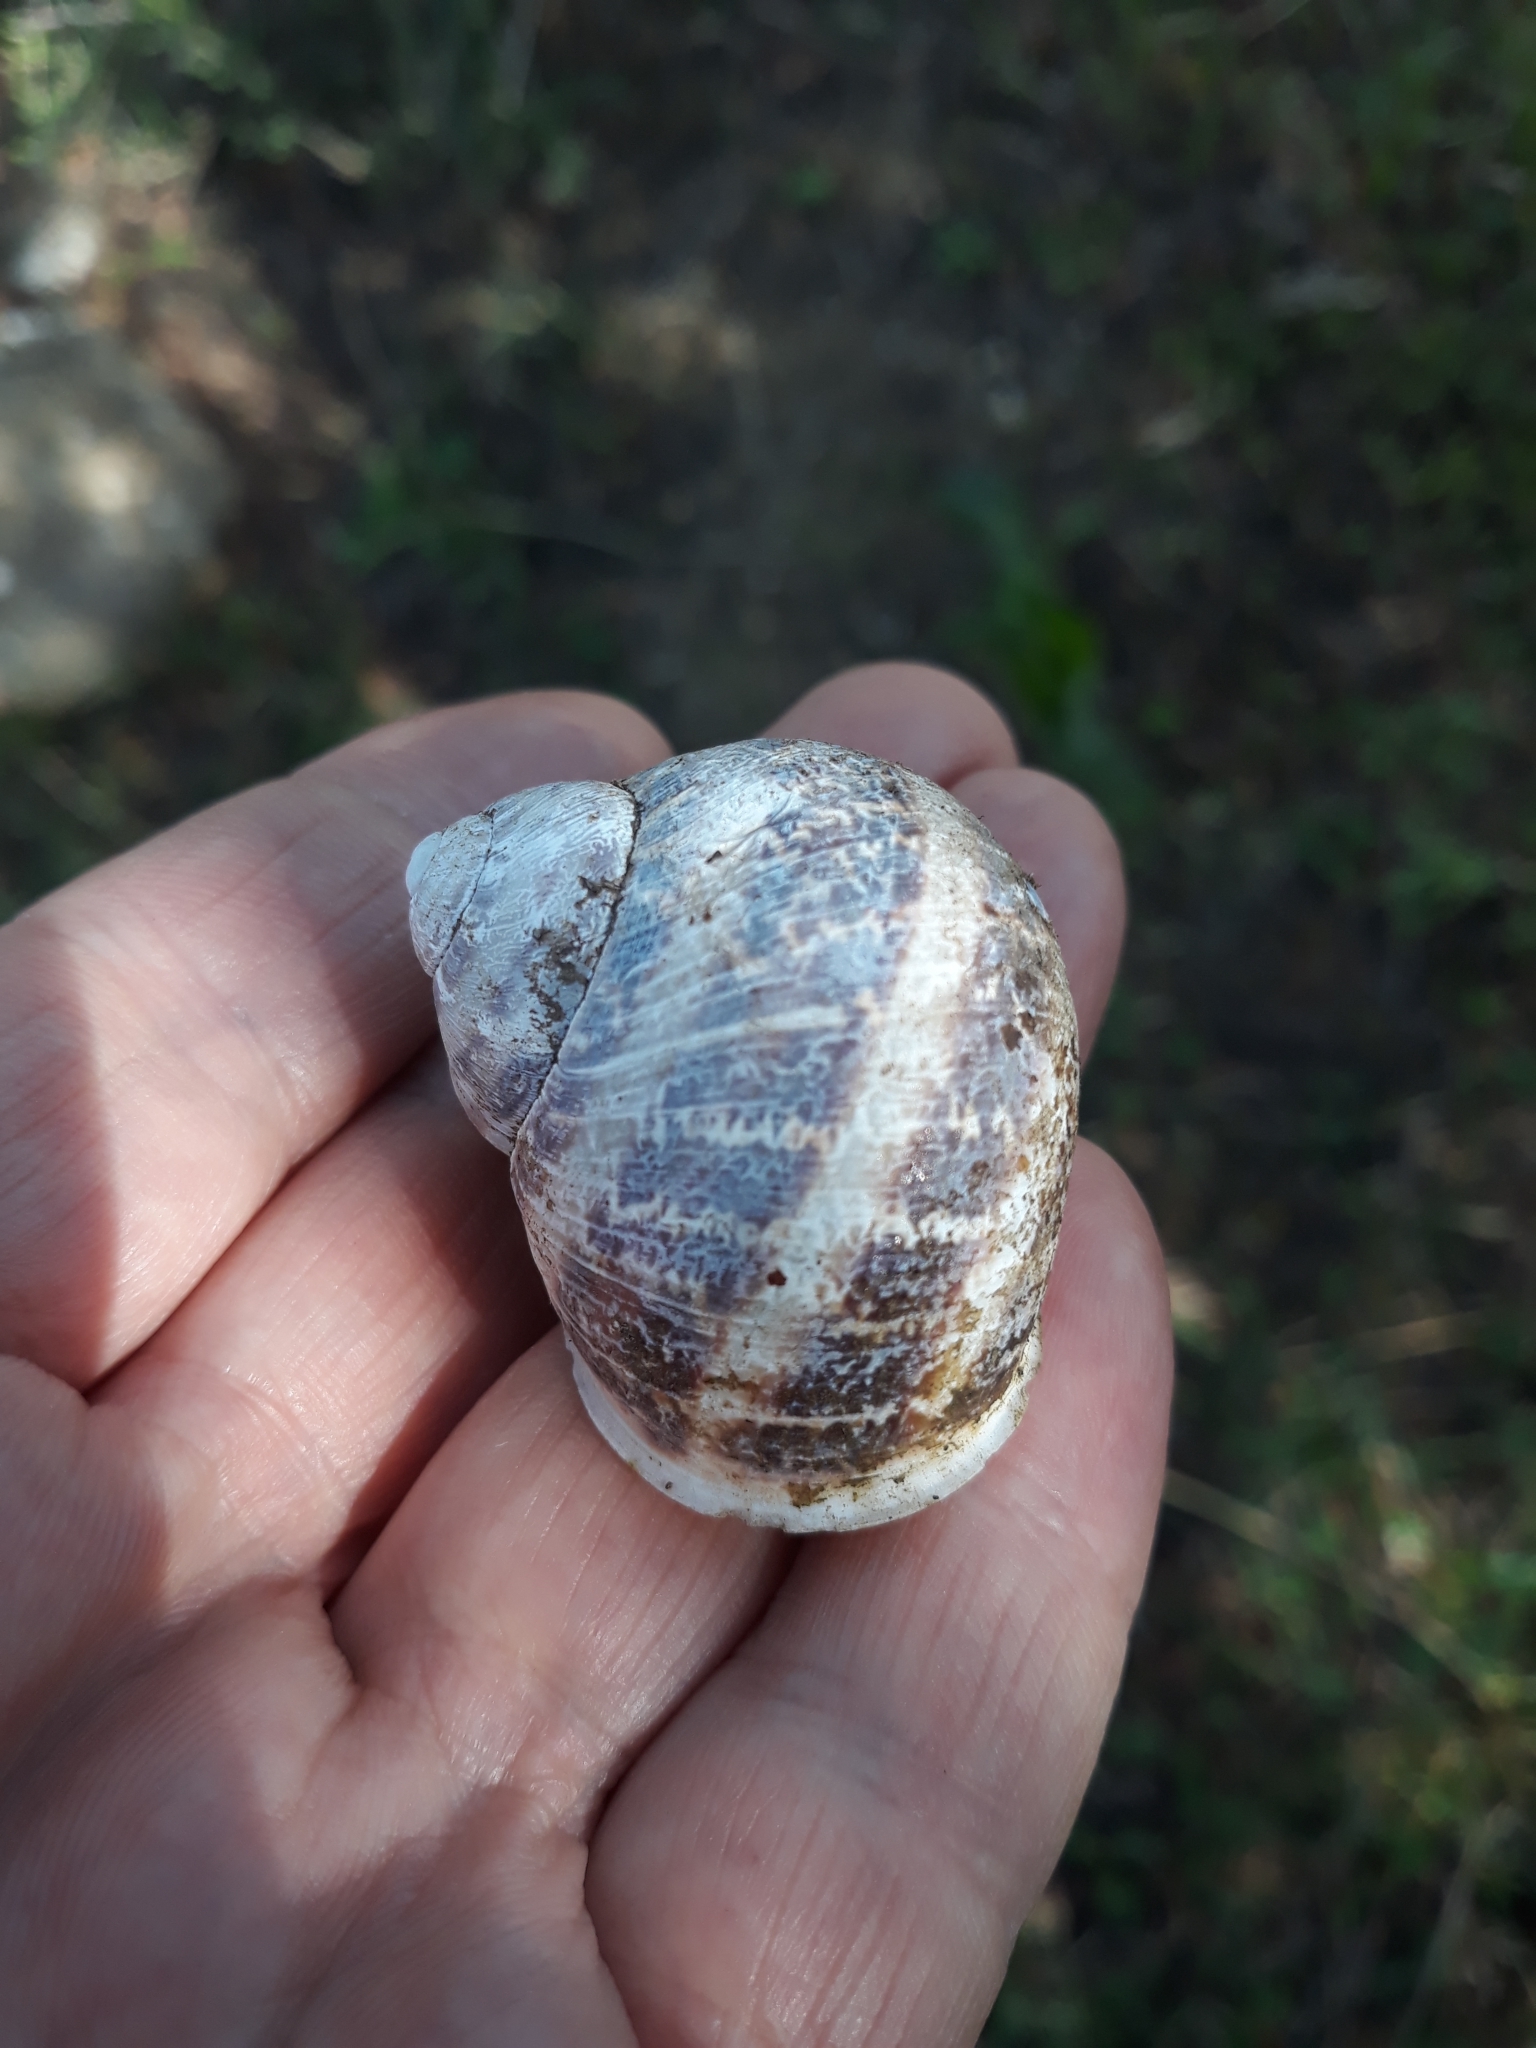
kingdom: Animalia
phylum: Mollusca
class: Gastropoda
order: Stylommatophora
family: Helicidae
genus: Cornu
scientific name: Cornu aspersum
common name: Brown garden snail
